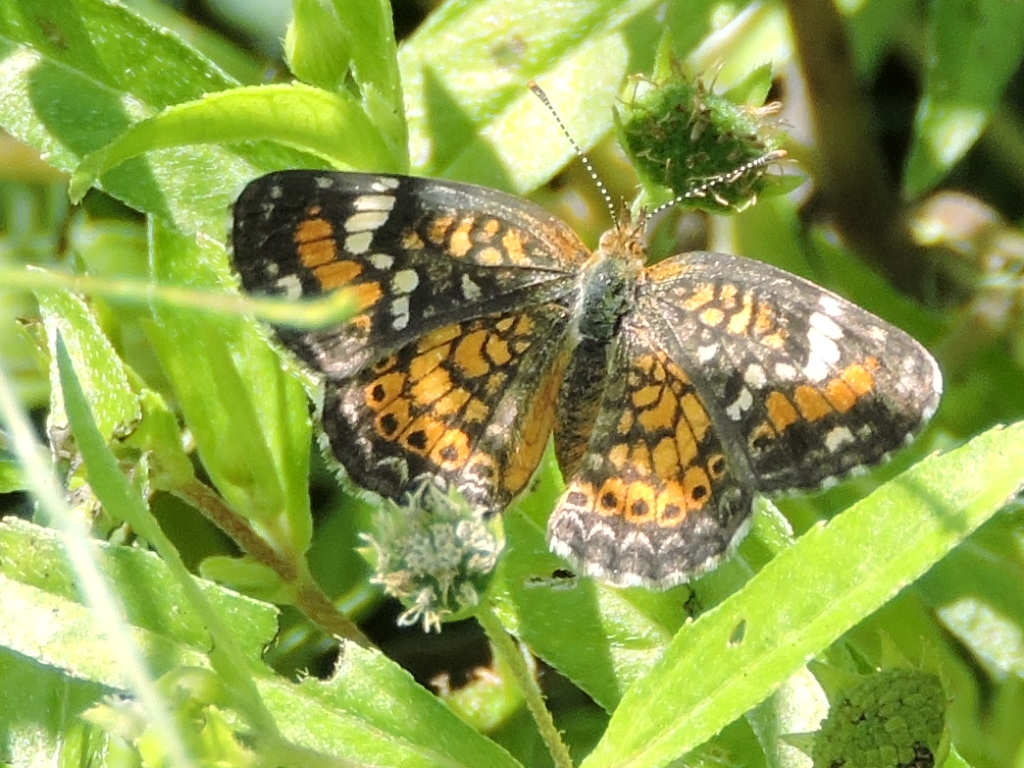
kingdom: Animalia
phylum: Arthropoda
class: Insecta
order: Lepidoptera
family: Nymphalidae
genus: Phyciodes
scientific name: Phyciodes phaon
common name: Phaon crescent
